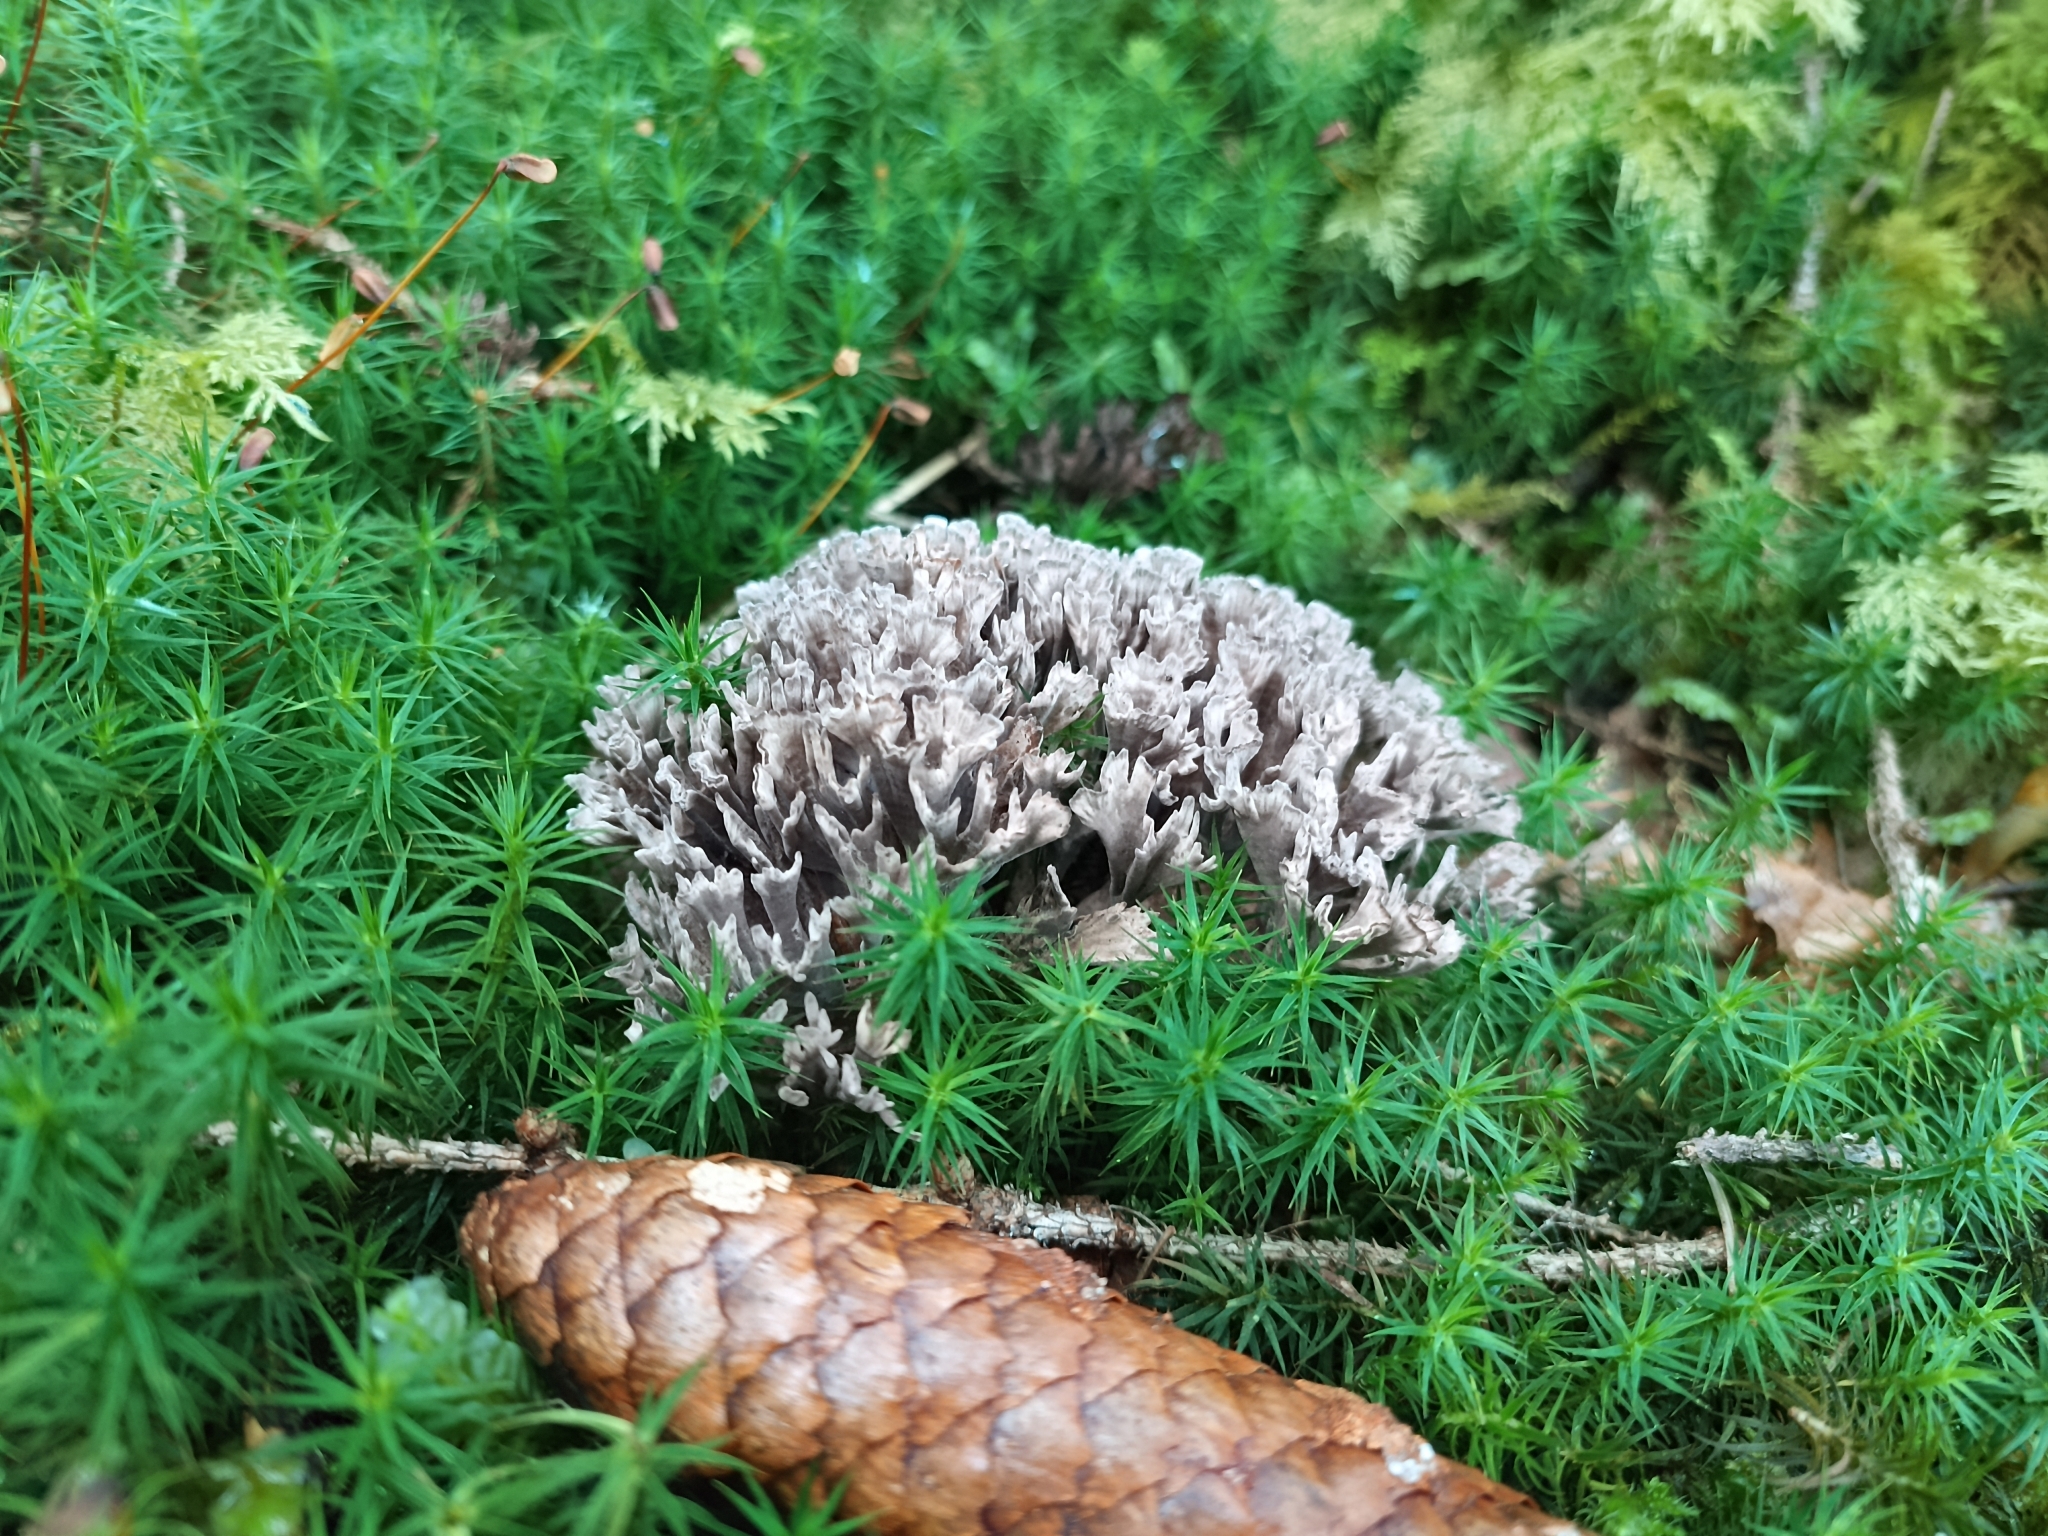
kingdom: Fungi
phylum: Basidiomycota
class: Agaricomycetes
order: Thelephorales
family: Thelephoraceae
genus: Thelephora
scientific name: Thelephora palmata
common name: Stinking earthfan
